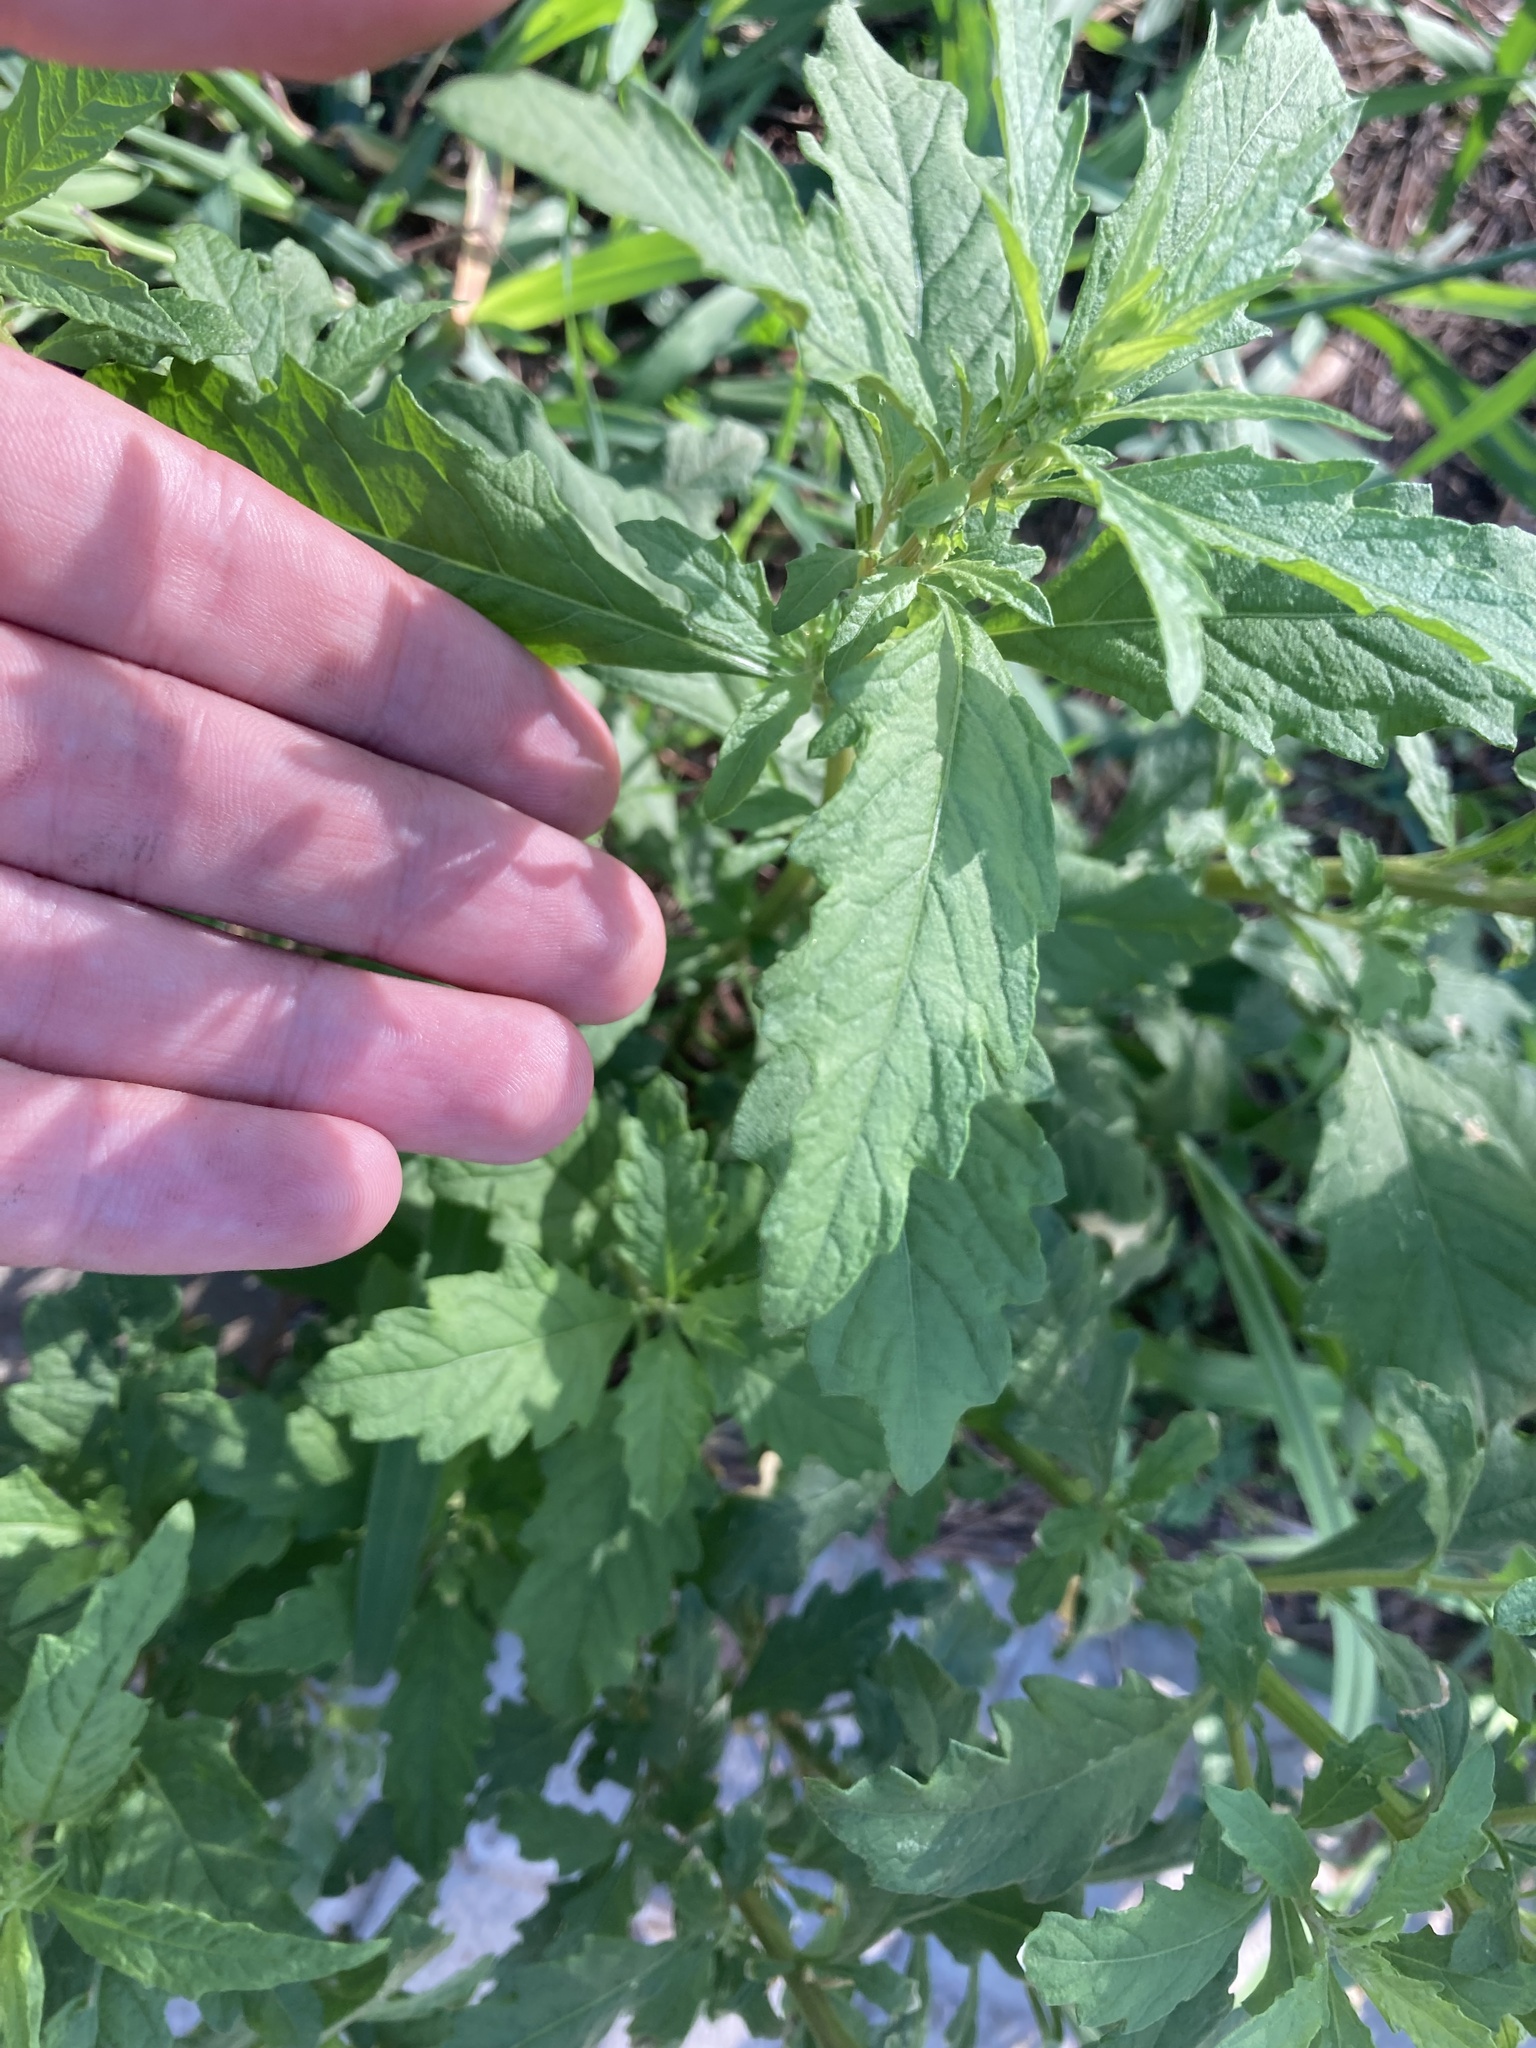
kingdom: Plantae
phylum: Tracheophyta
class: Magnoliopsida
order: Caryophyllales
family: Amaranthaceae
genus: Dysphania
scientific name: Dysphania ambrosioides
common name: Wormseed
